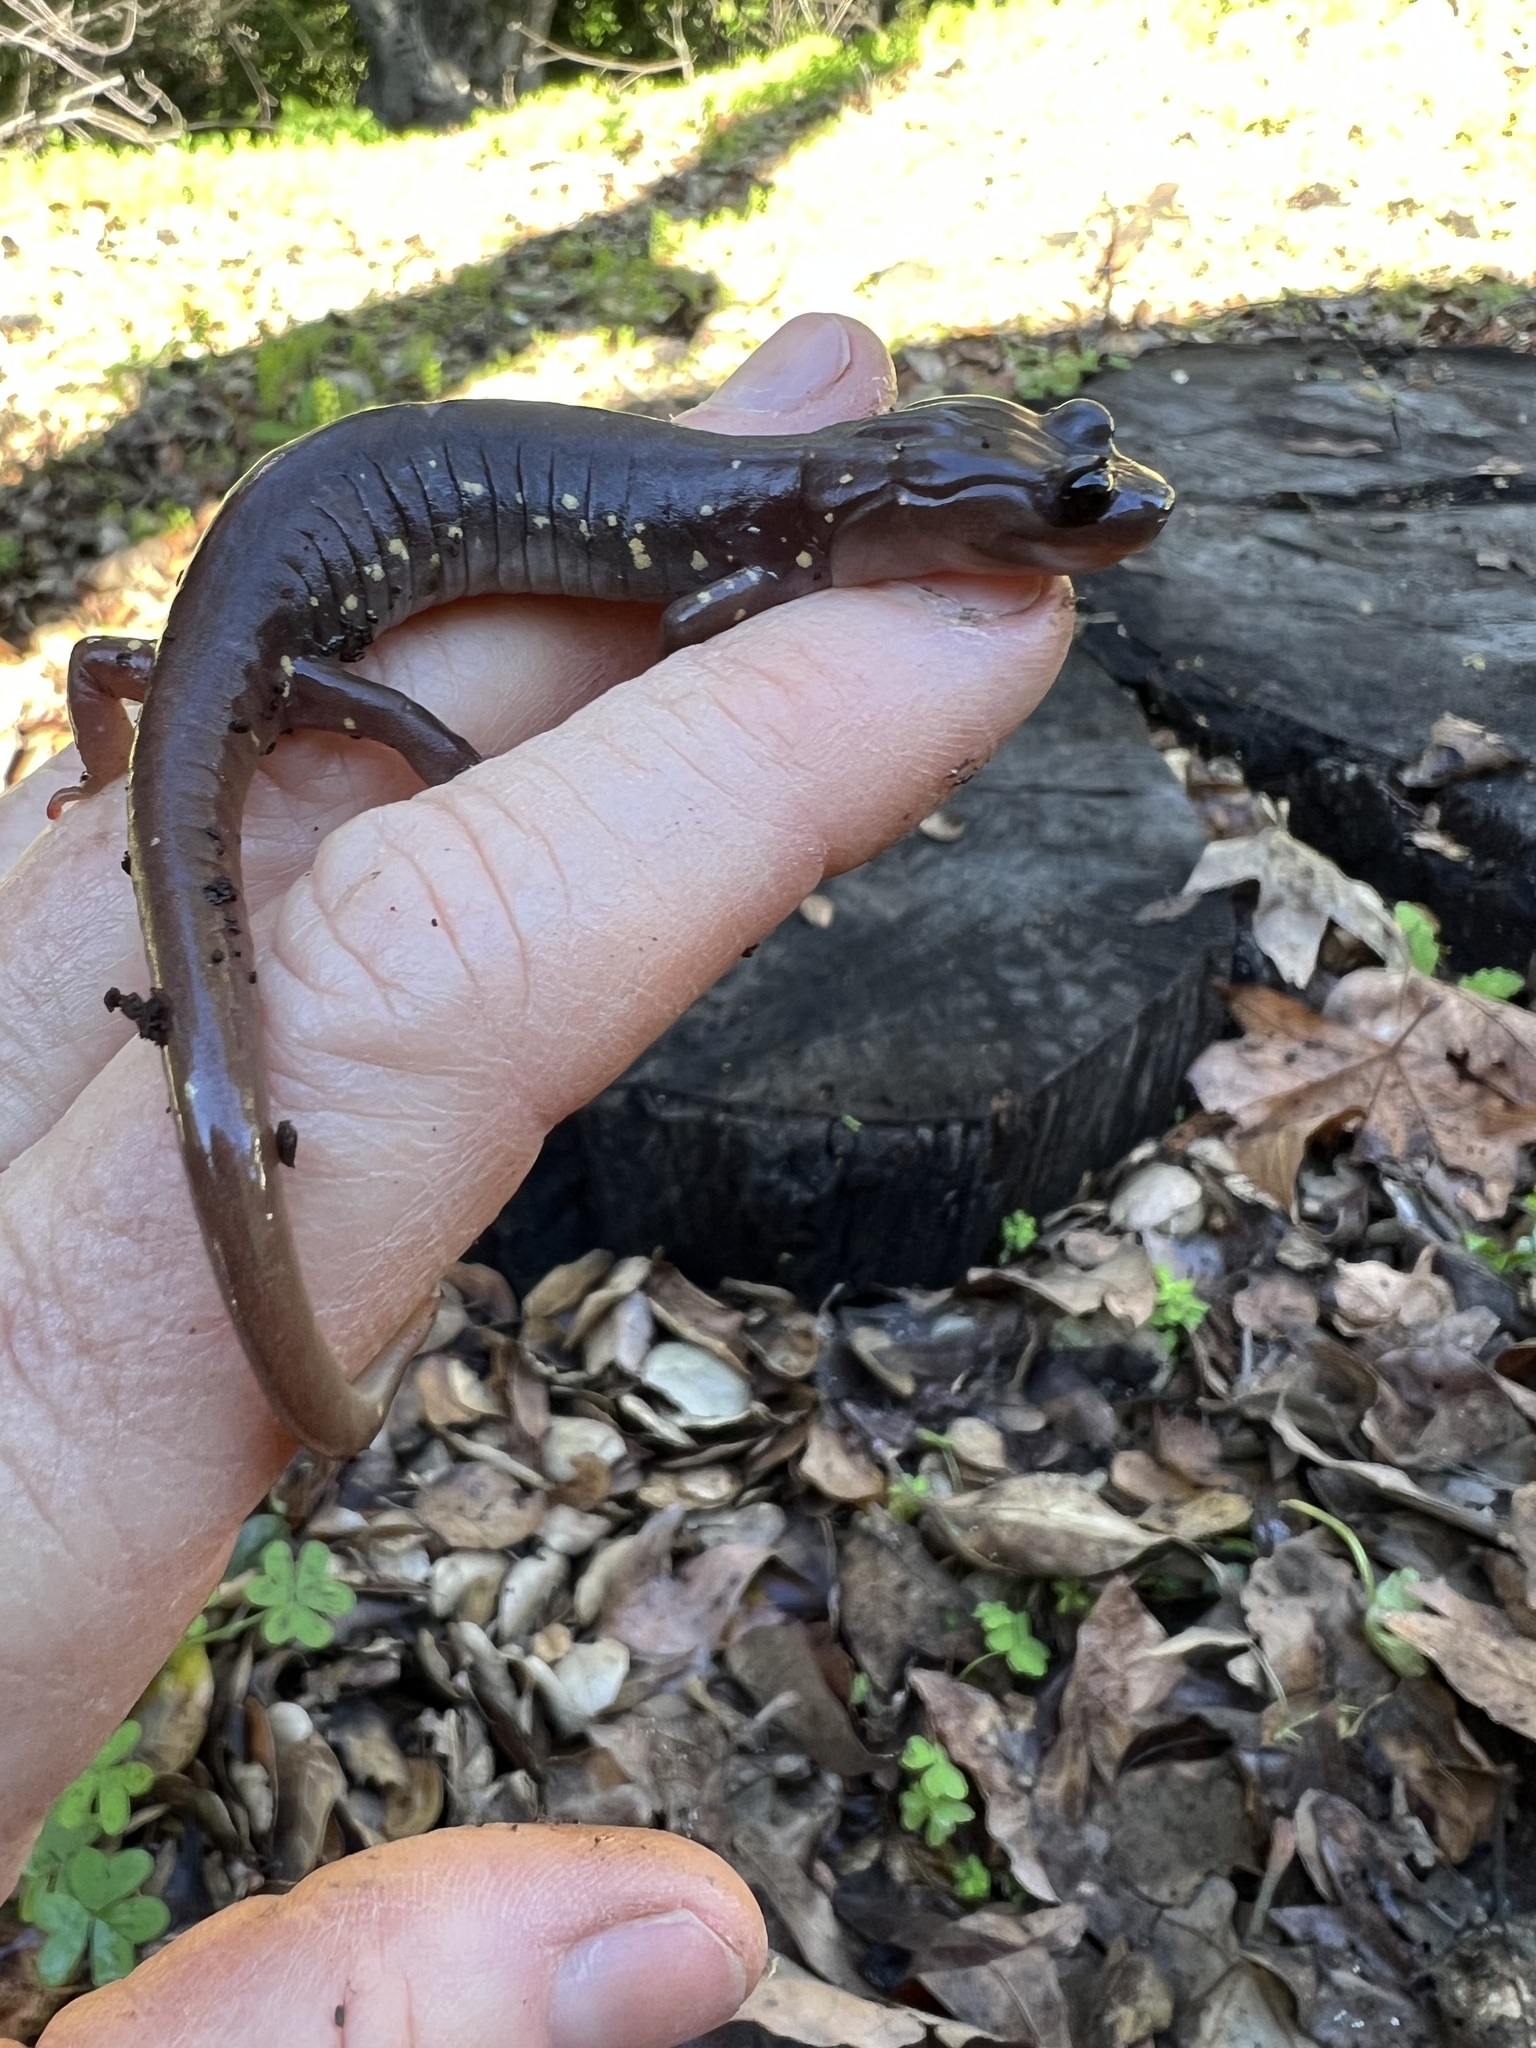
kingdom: Animalia
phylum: Chordata
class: Amphibia
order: Caudata
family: Plethodontidae
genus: Aneides
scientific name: Aneides lugubris
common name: Arboreal salamander
